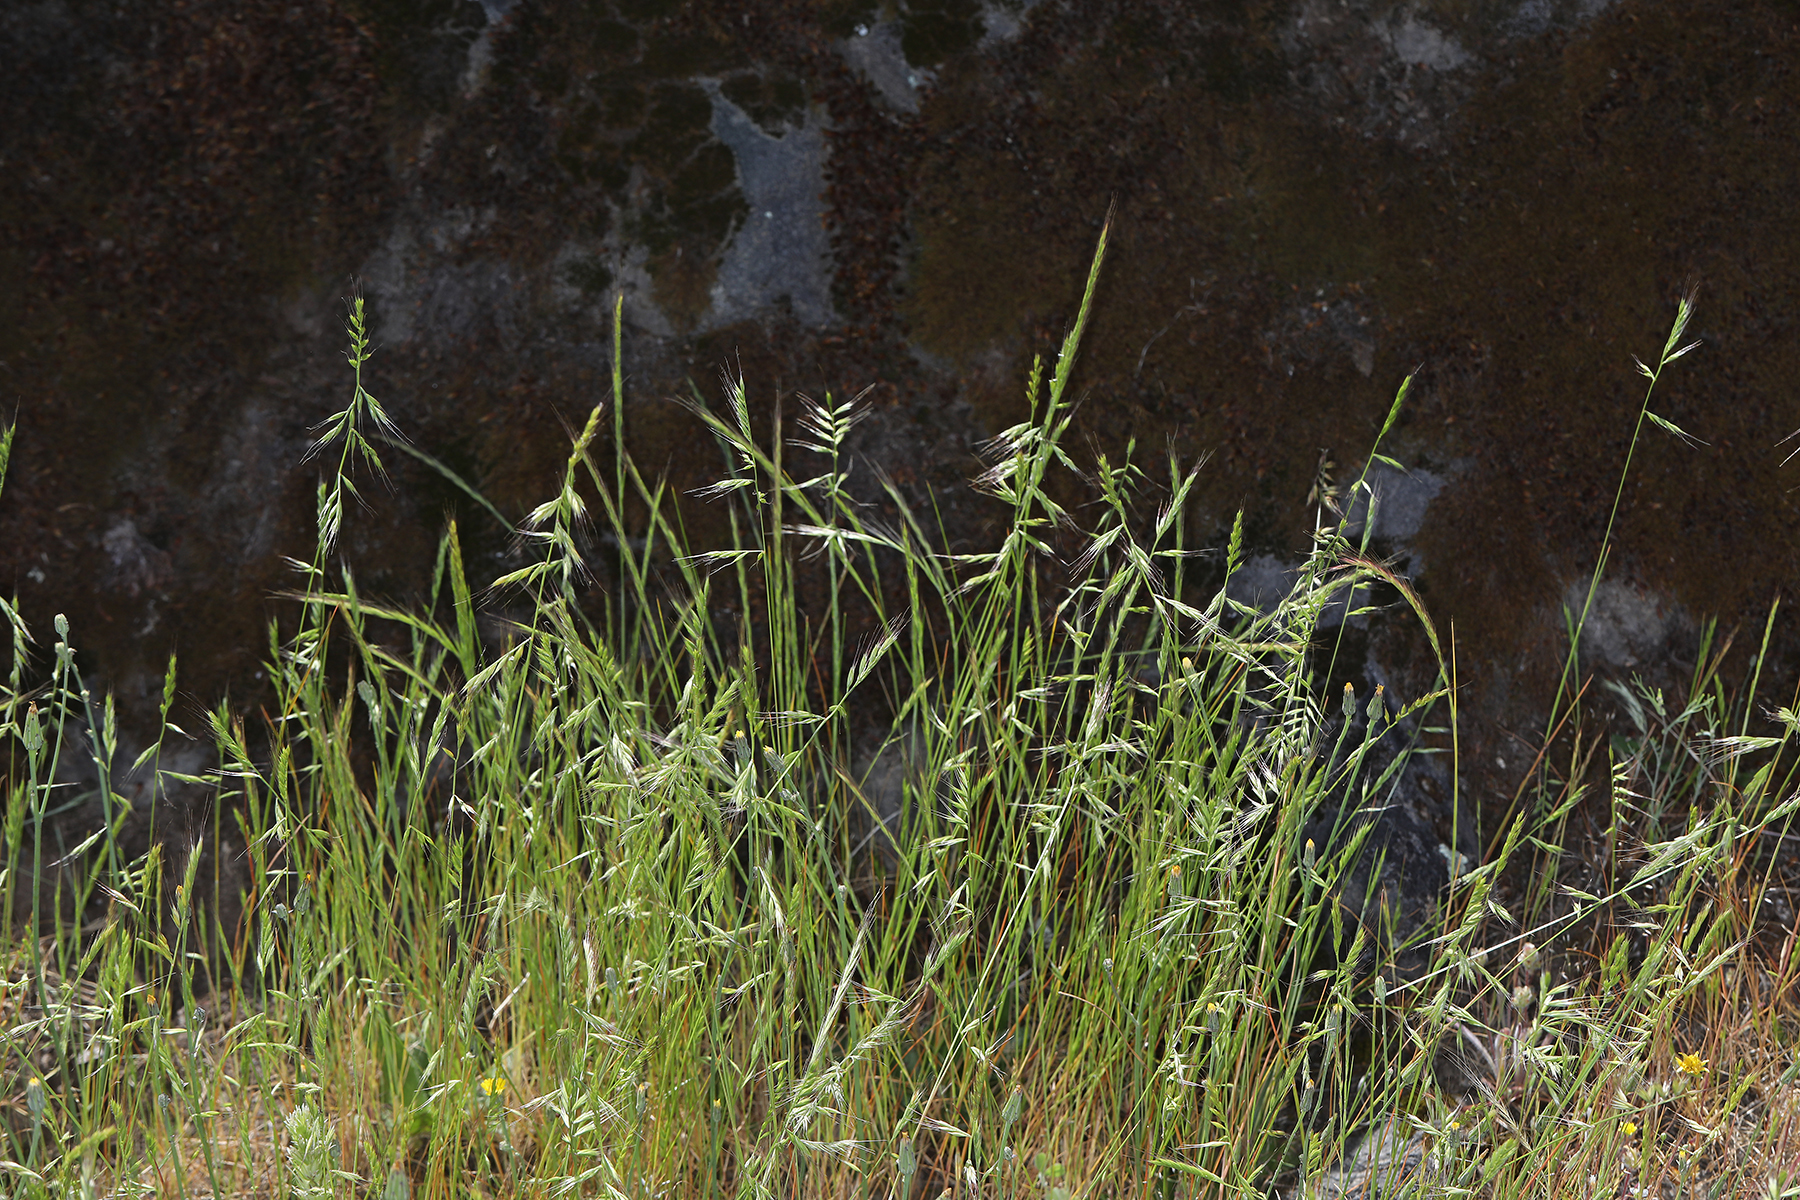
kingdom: Plantae
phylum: Tracheophyta
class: Liliopsida
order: Poales
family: Poaceae
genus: Festuca
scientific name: Festuca microstachys
